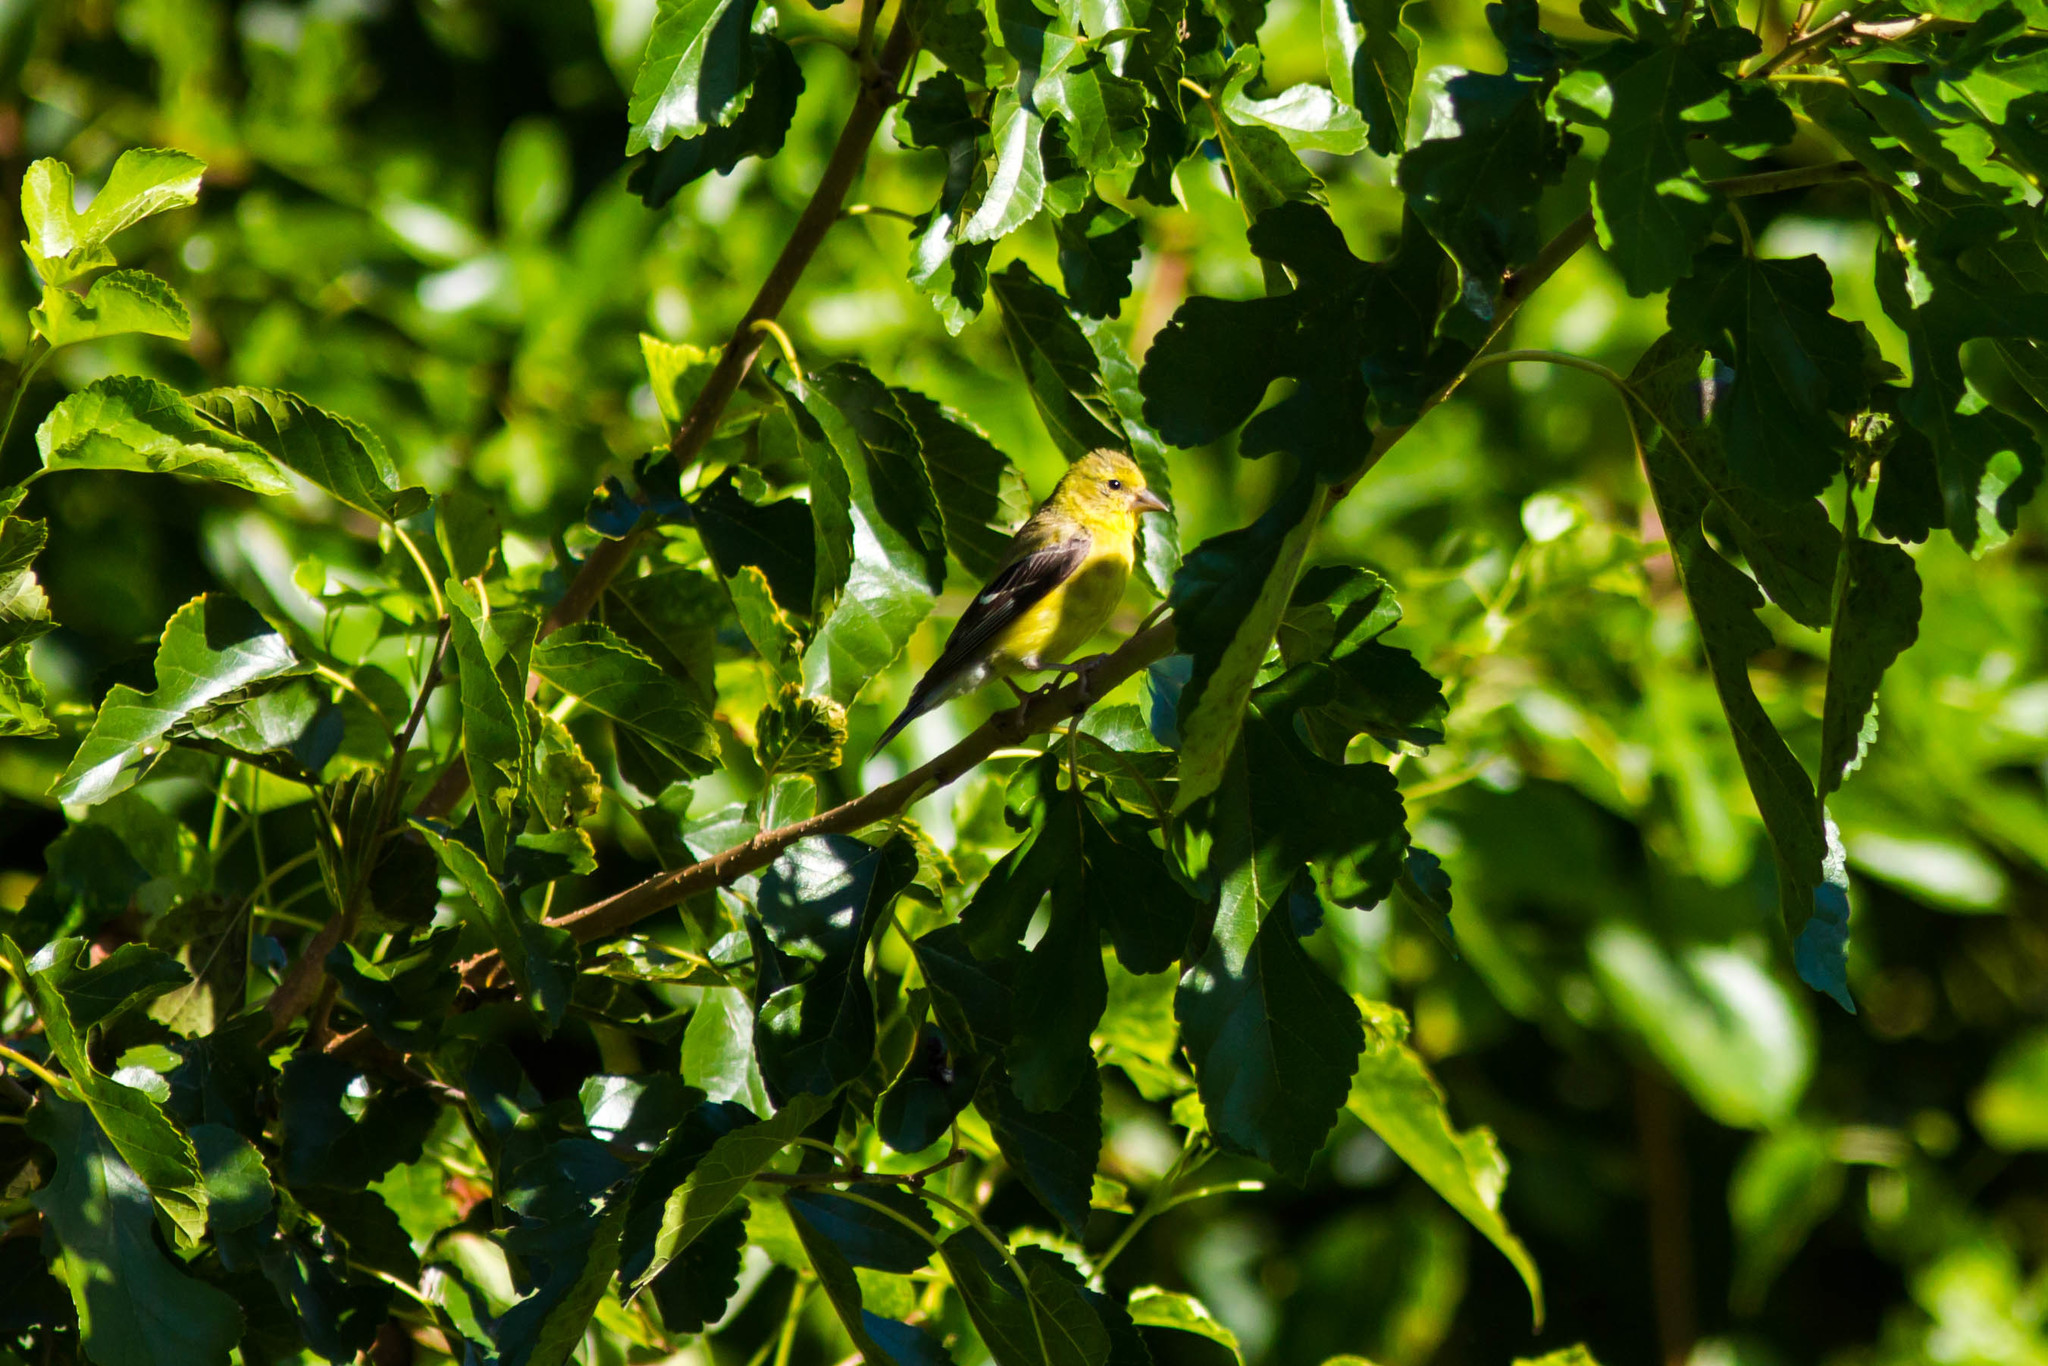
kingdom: Animalia
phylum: Chordata
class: Aves
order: Passeriformes
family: Fringillidae
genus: Spinus
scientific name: Spinus tristis
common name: American goldfinch
